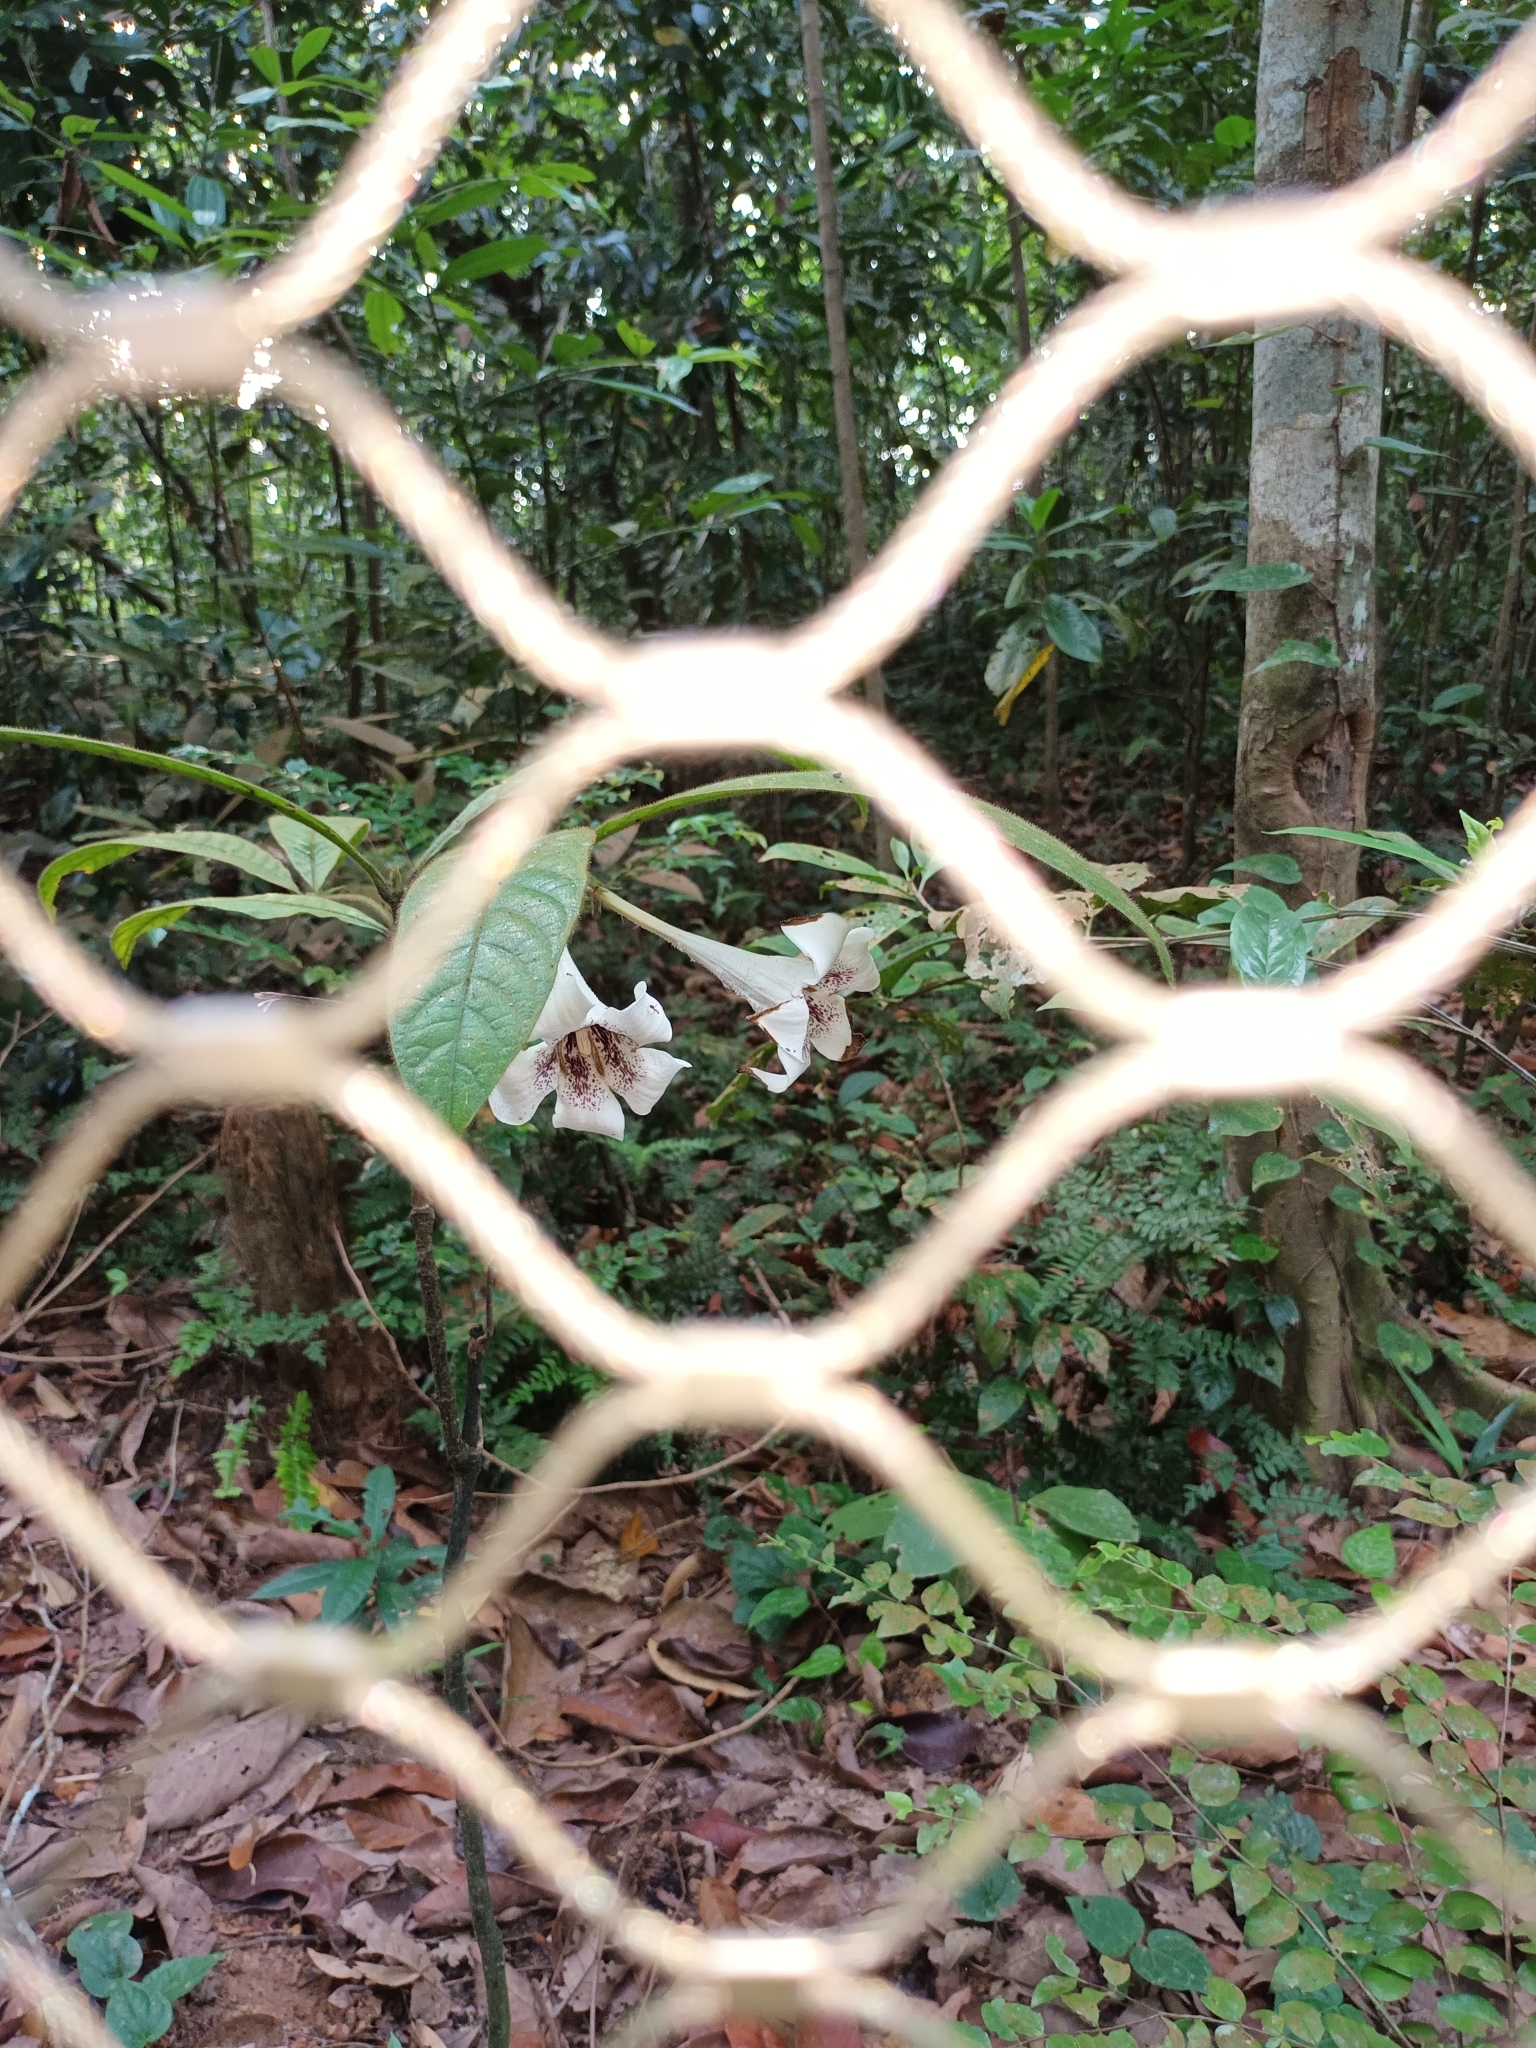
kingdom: Plantae
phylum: Tracheophyta
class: Magnoliopsida
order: Gentianales
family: Rubiaceae
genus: Singaporandia
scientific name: Singaporandia macrophylla
